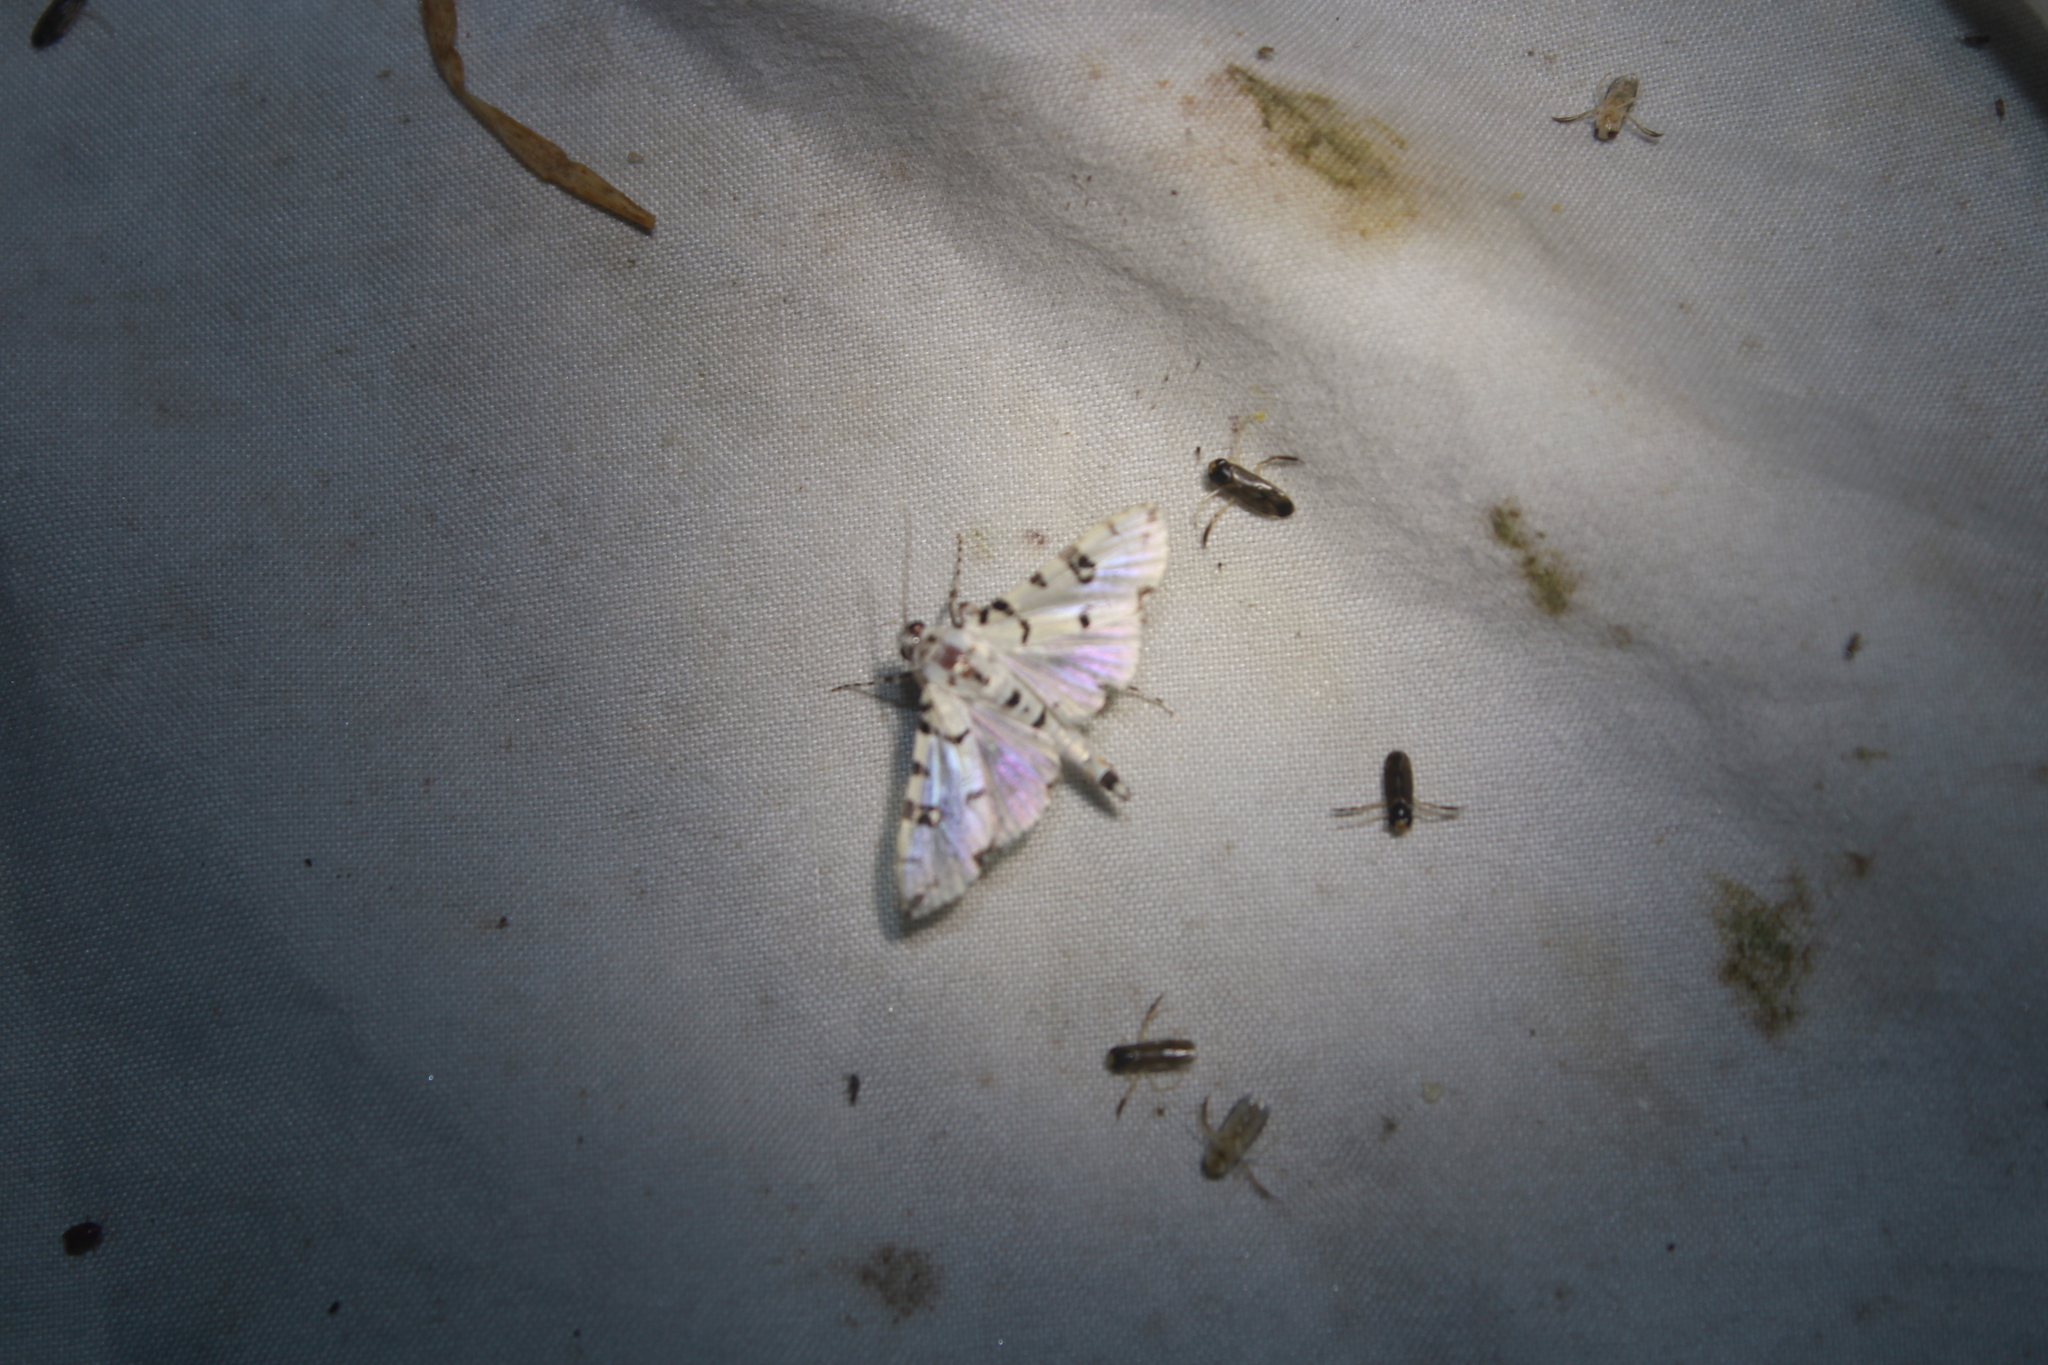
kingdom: Animalia
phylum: Arthropoda
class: Insecta
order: Lepidoptera
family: Crambidae
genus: Conchylodes
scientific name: Conchylodes diphteralis
